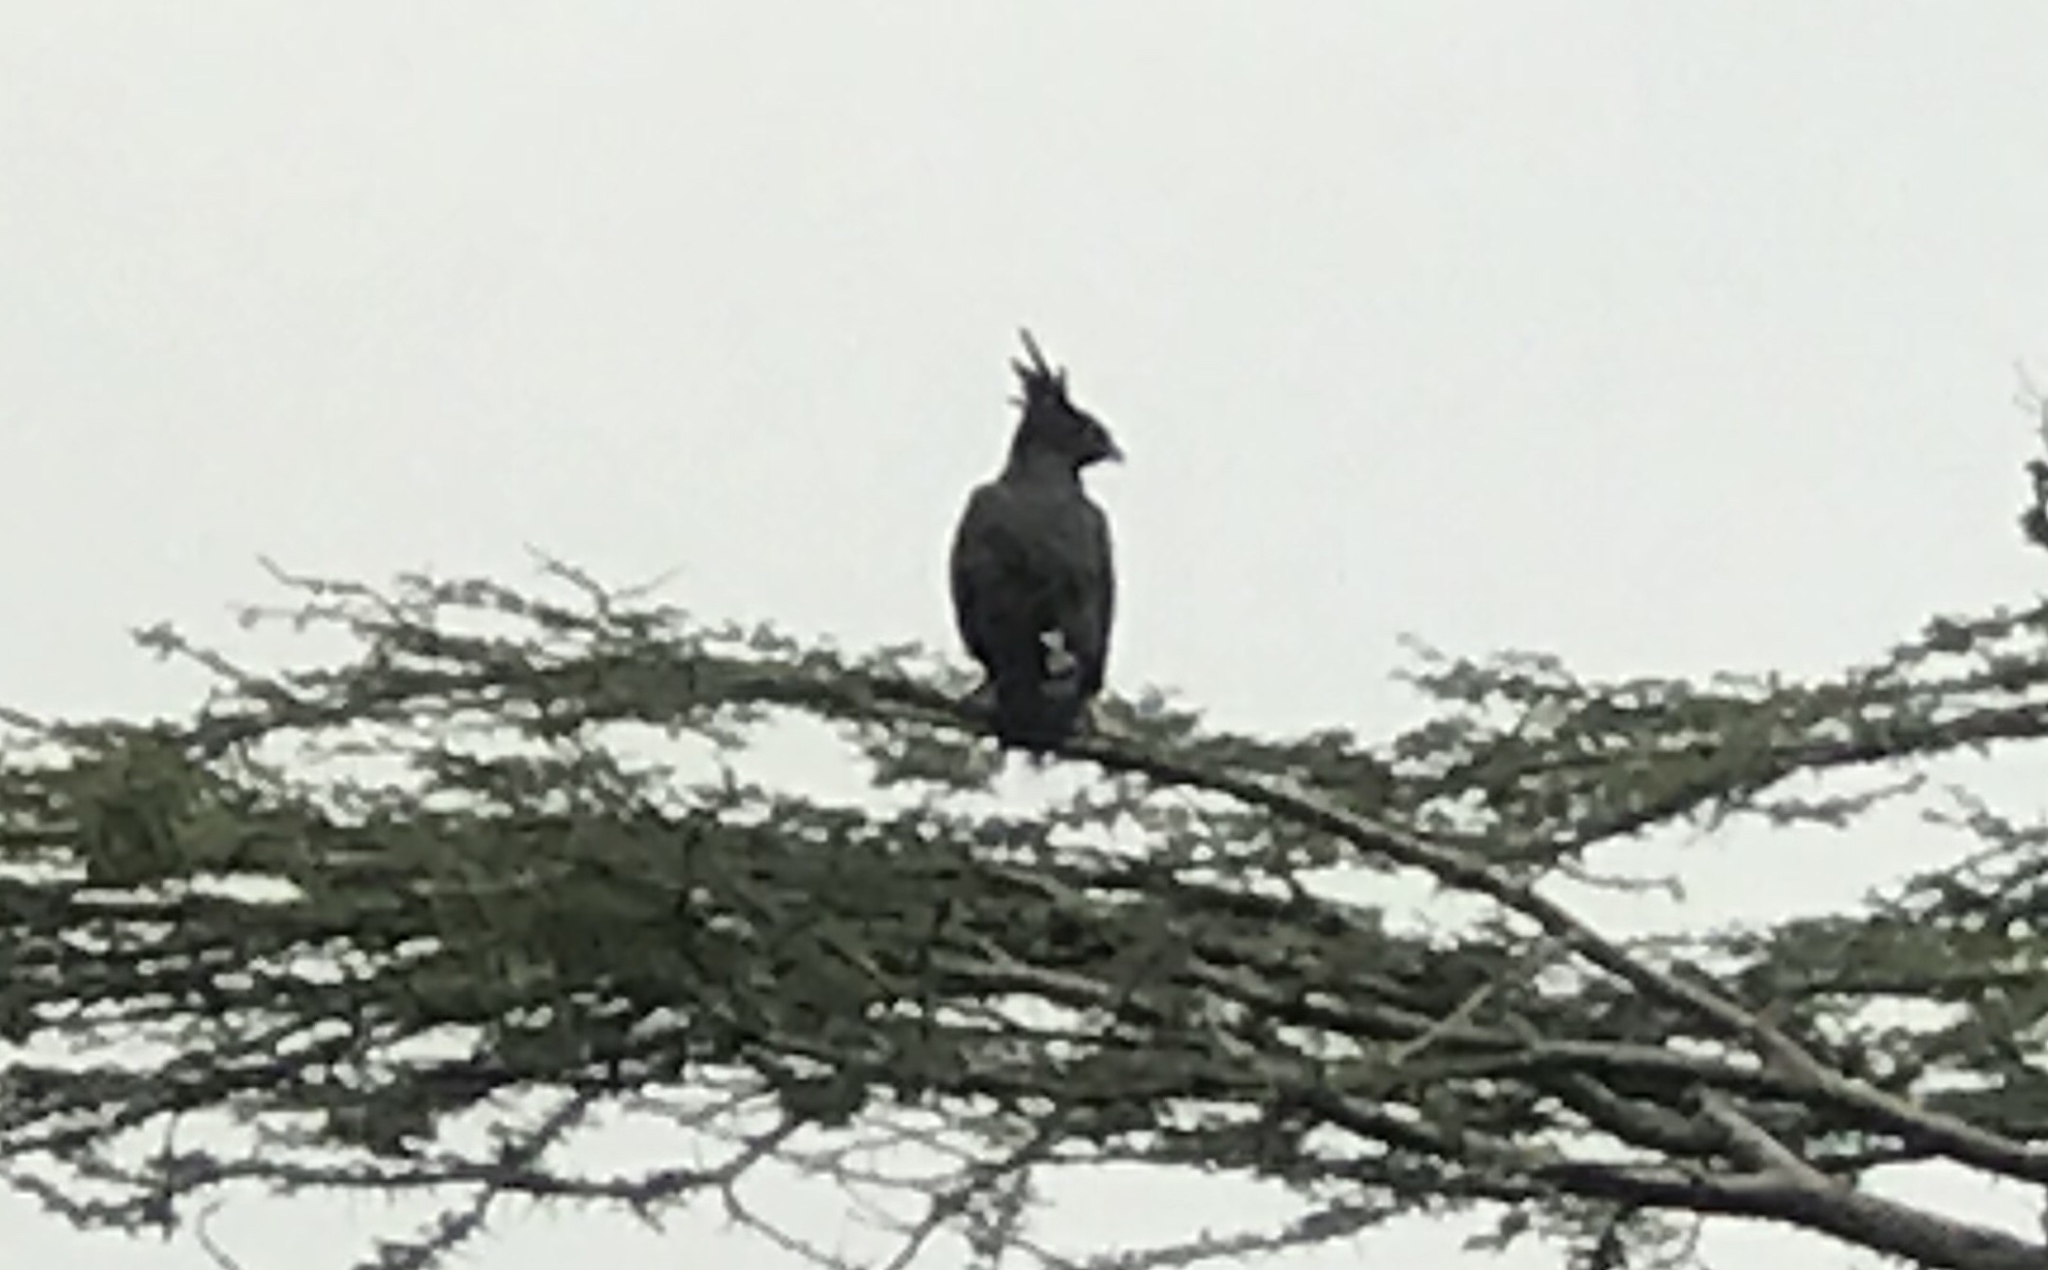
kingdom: Animalia
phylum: Chordata
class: Aves
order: Accipitriformes
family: Accipitridae
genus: Lophaetus
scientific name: Lophaetus occipitalis
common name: Long-crested eagle
